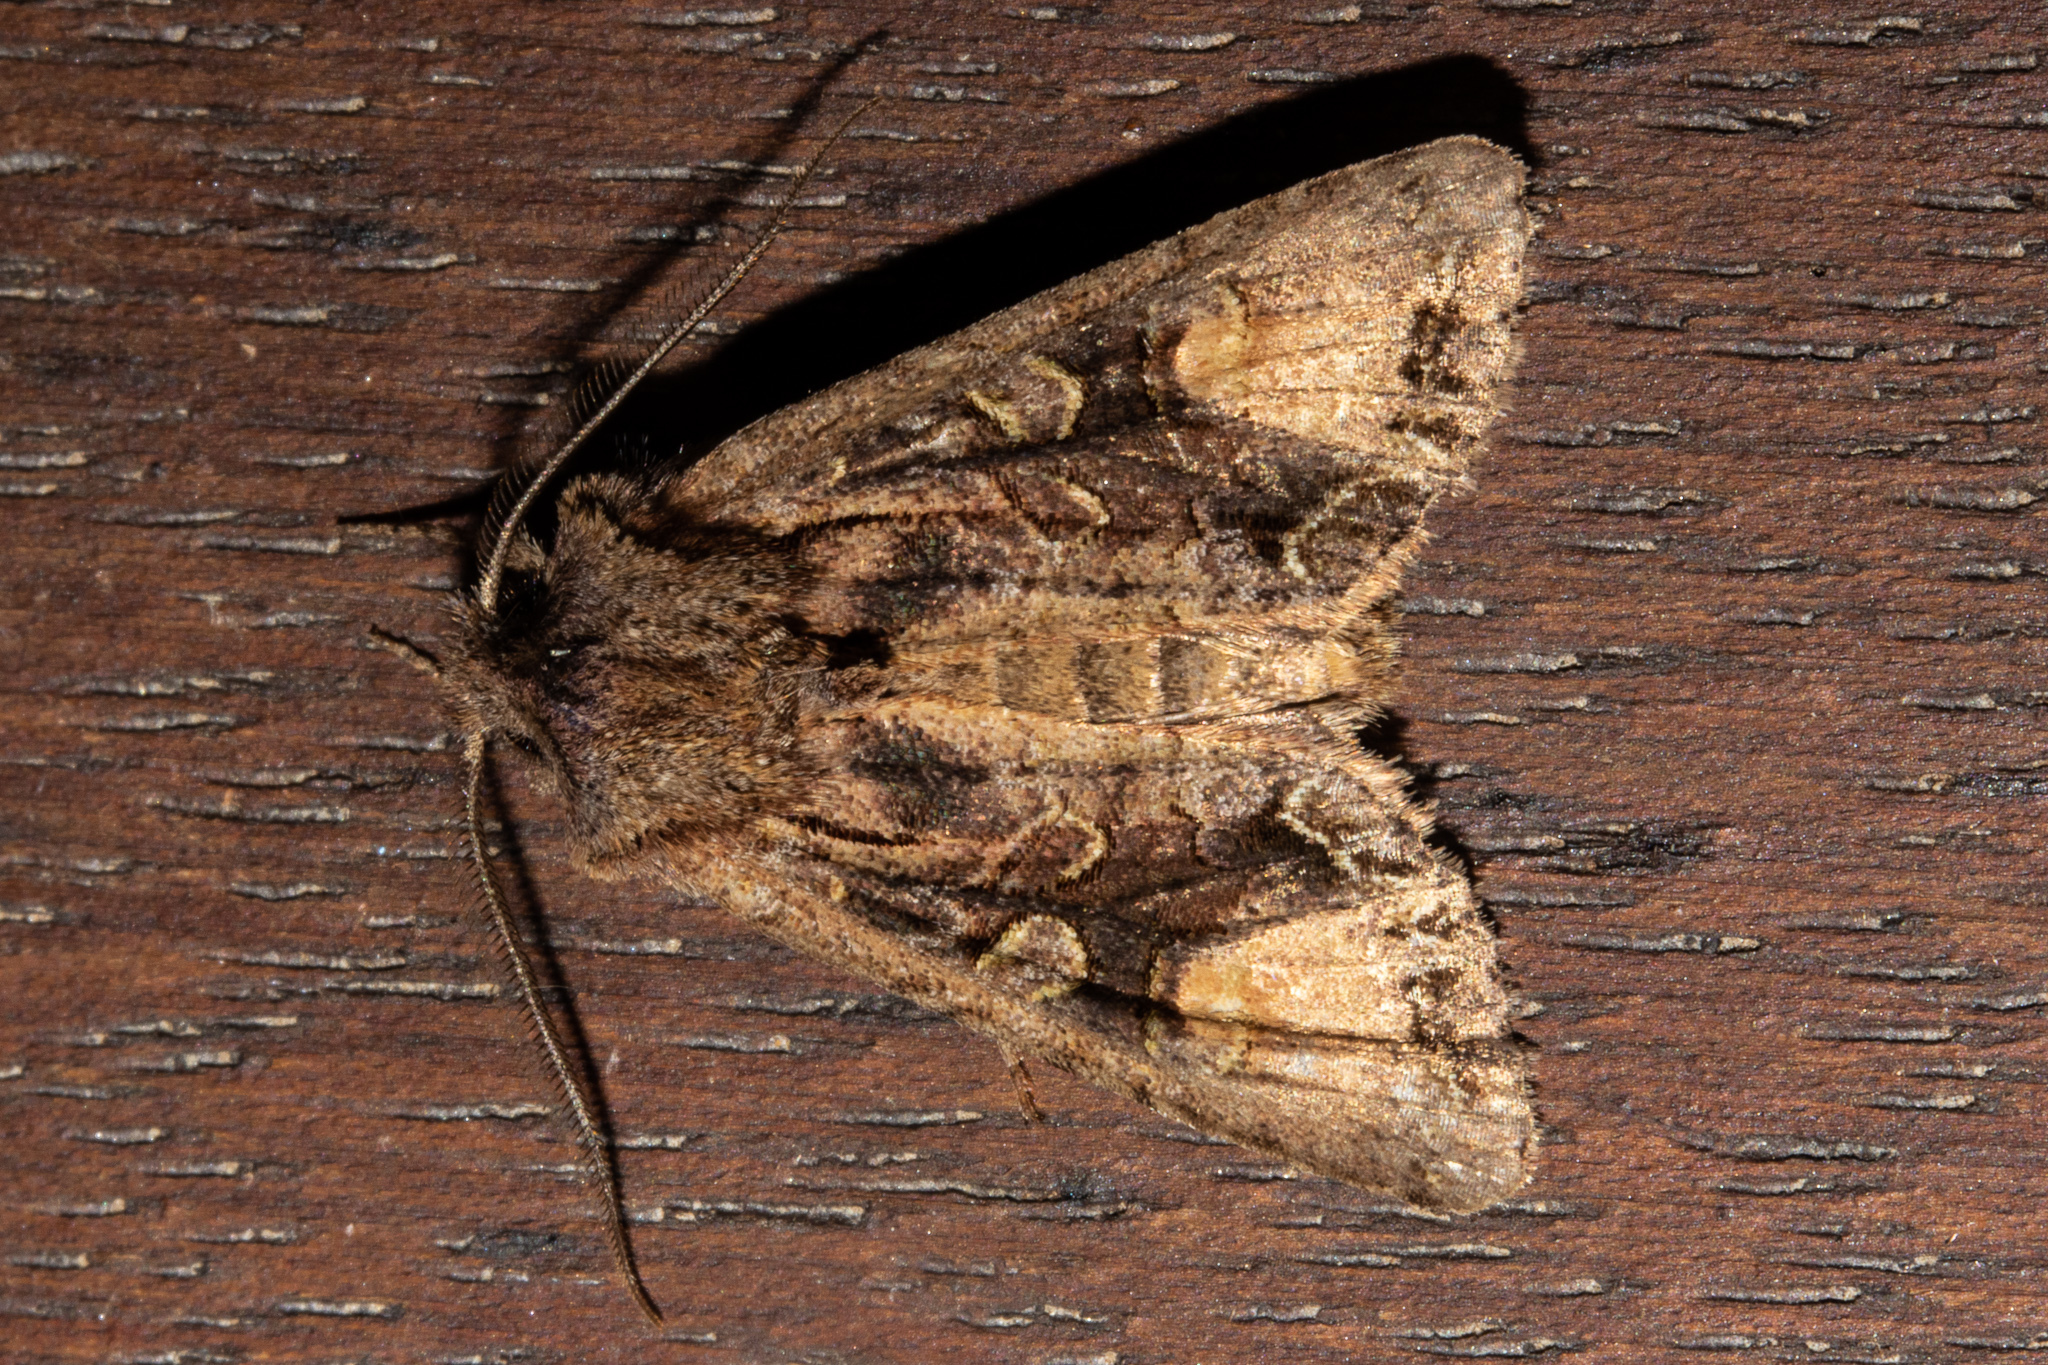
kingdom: Animalia
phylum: Arthropoda
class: Insecta
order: Lepidoptera
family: Noctuidae
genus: Ichneutica
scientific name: Ichneutica
